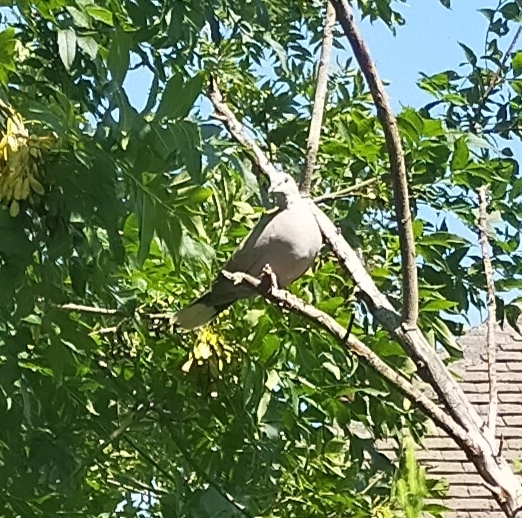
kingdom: Animalia
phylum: Chordata
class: Aves
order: Columbiformes
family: Columbidae
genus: Streptopelia
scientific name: Streptopelia decaocto
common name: Eurasian collared dove
